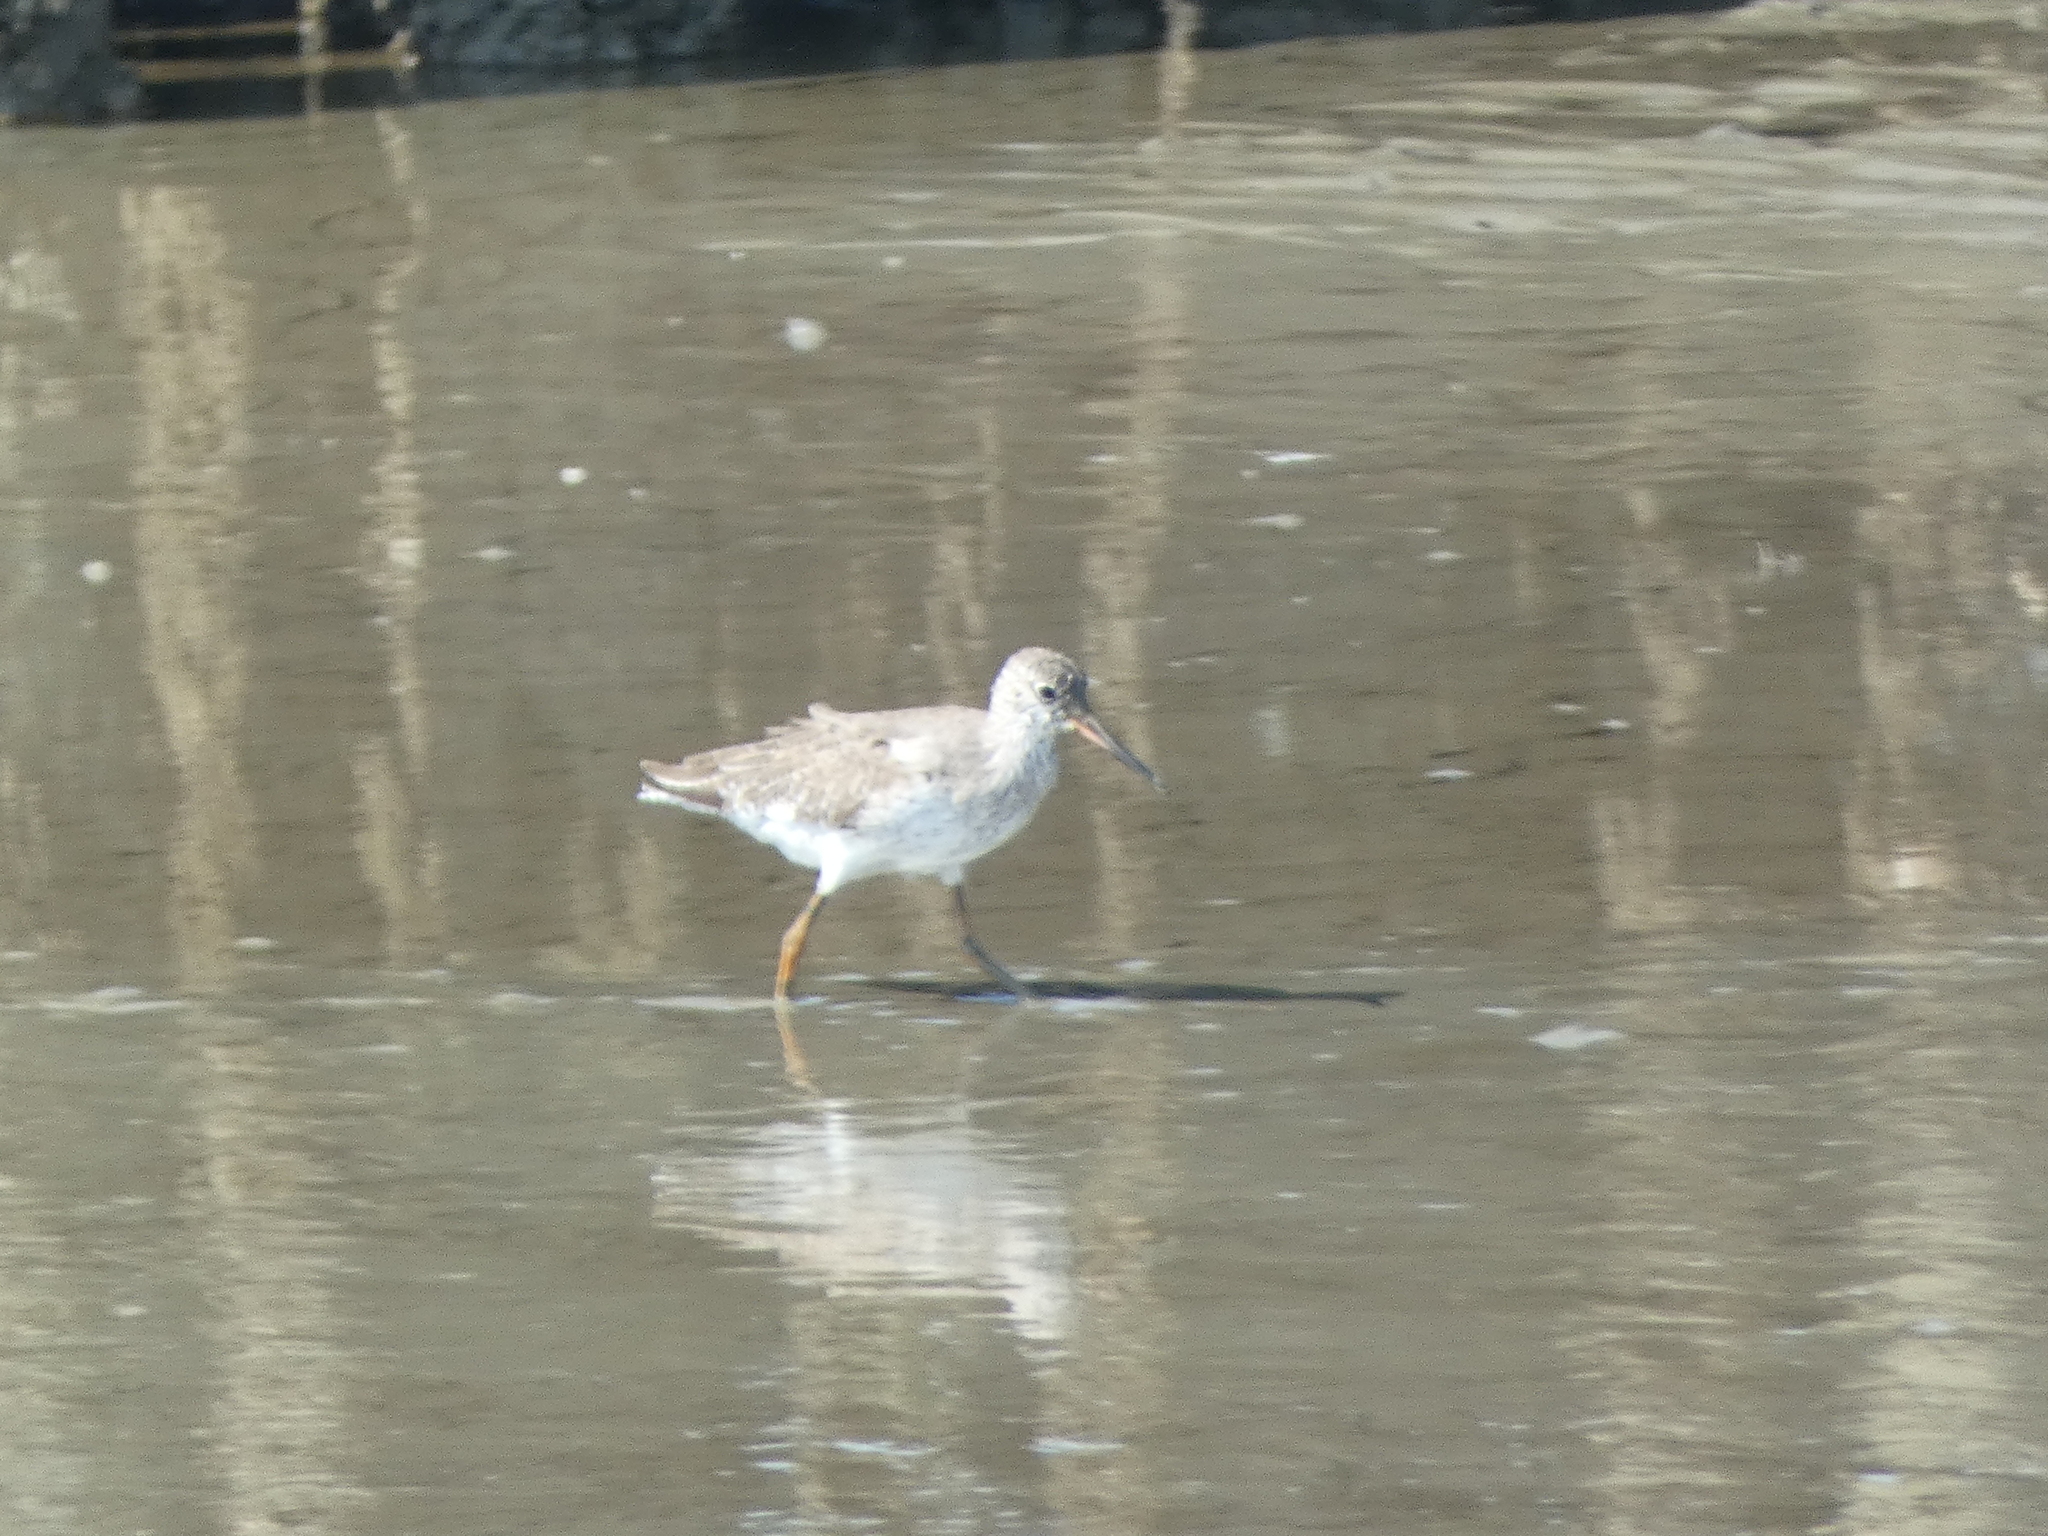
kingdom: Animalia
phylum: Chordata
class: Aves
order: Charadriiformes
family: Scolopacidae
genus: Tringa
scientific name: Tringa totanus
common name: Common redshank
